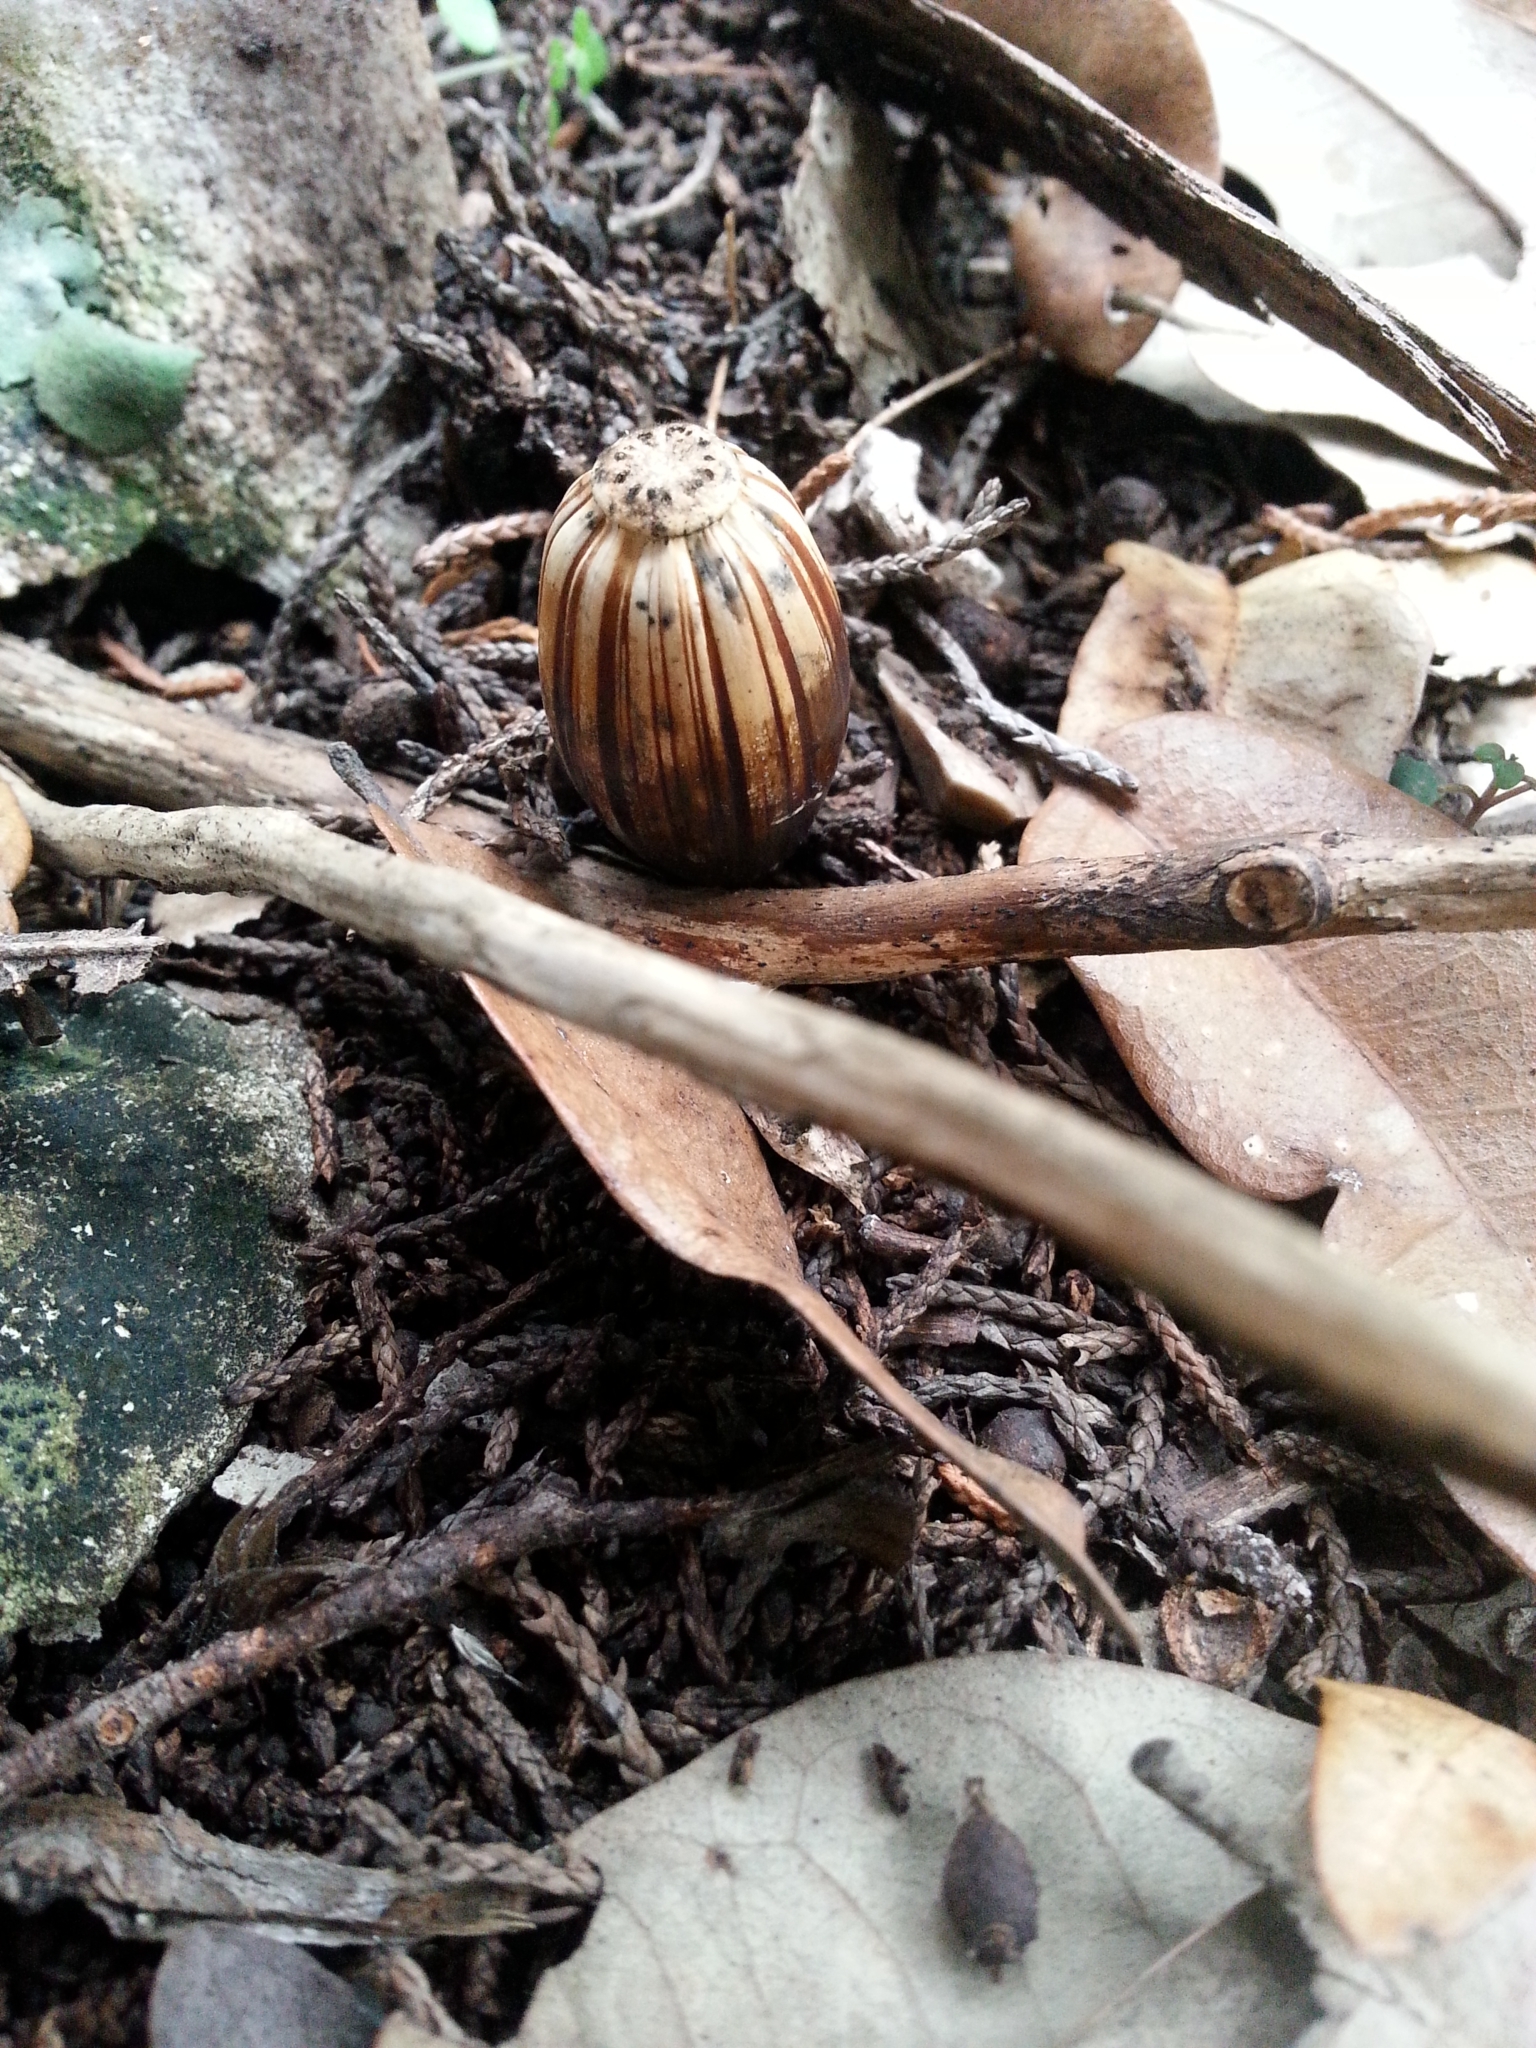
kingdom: Plantae
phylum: Tracheophyta
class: Magnoliopsida
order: Fagales
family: Fagaceae
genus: Quercus
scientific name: Quercus fusiformis
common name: Texas live oak
